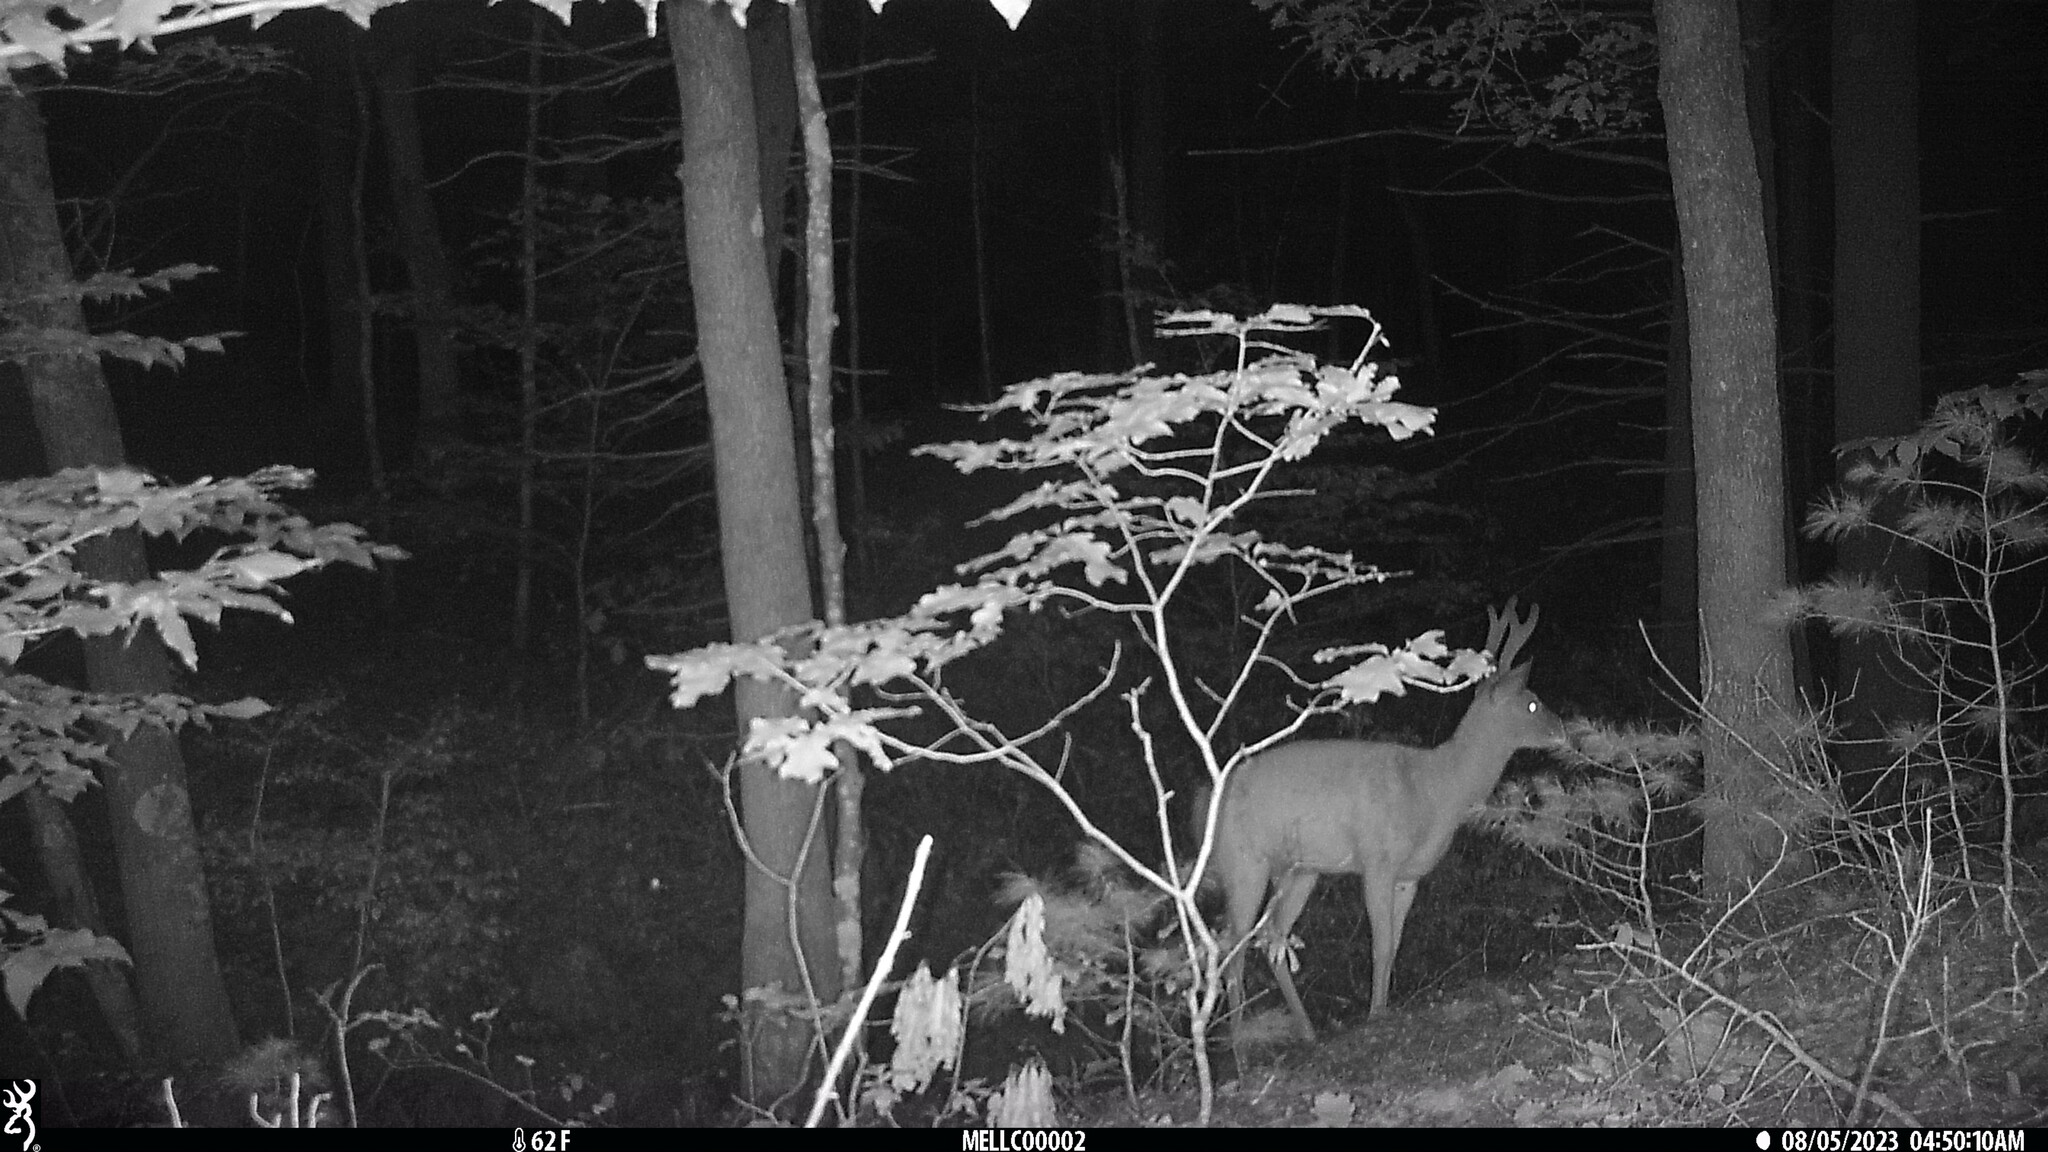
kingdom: Animalia
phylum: Chordata
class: Mammalia
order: Artiodactyla
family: Cervidae
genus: Odocoileus
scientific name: Odocoileus virginianus
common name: White-tailed deer
